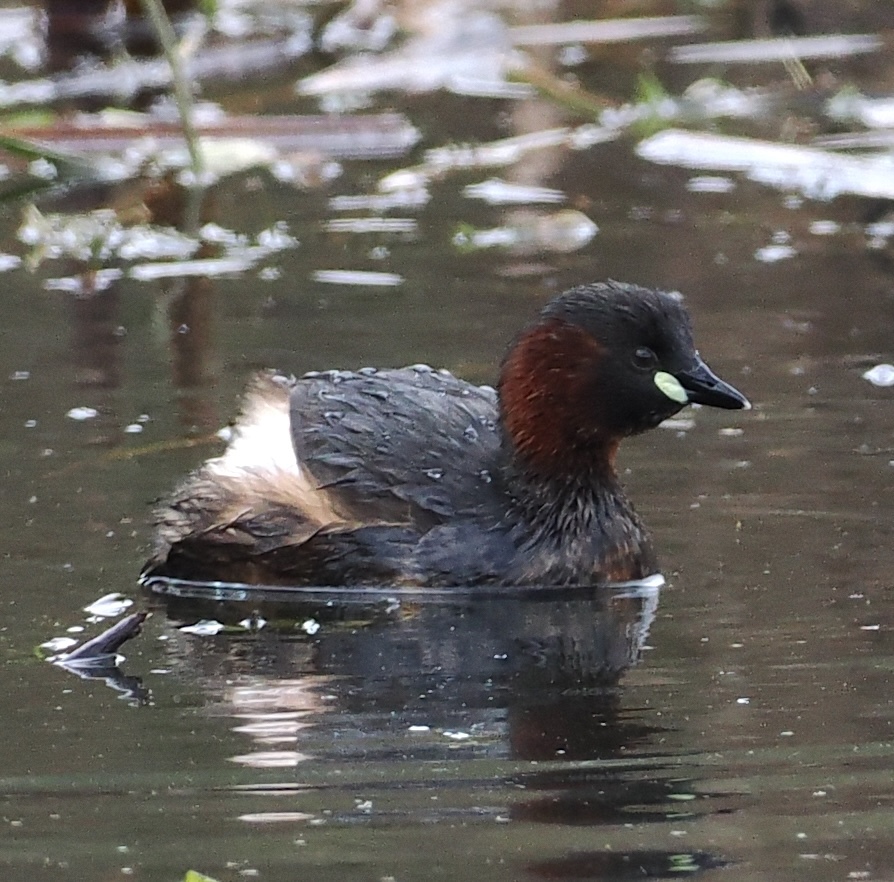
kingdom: Animalia
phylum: Chordata
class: Aves
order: Podicipediformes
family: Podicipedidae
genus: Tachybaptus
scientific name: Tachybaptus ruficollis
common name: Little grebe
